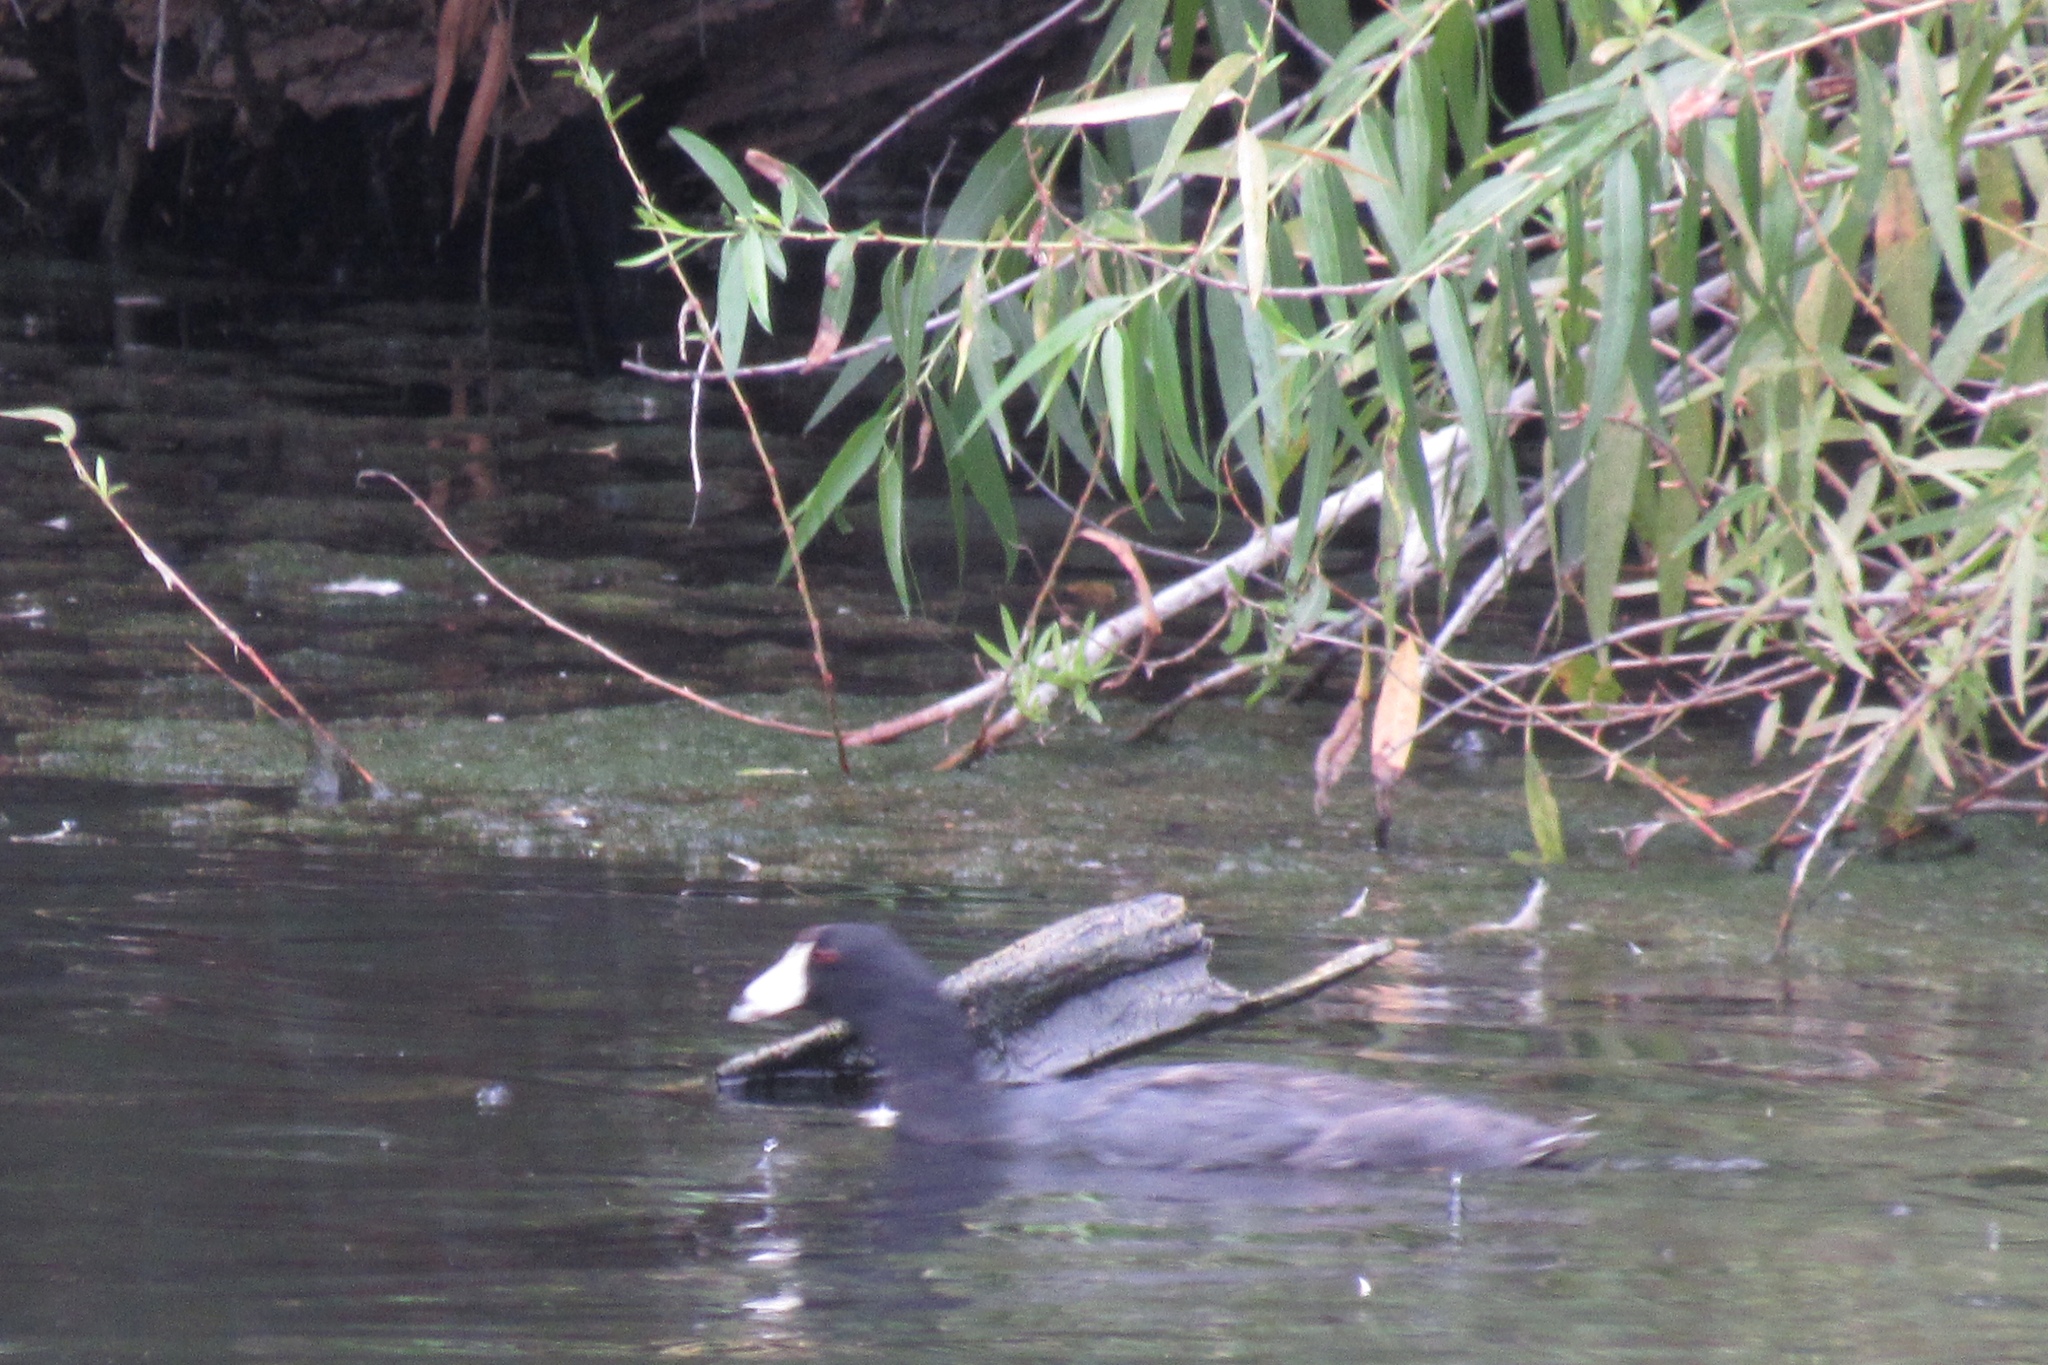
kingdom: Animalia
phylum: Chordata
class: Aves
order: Gruiformes
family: Rallidae
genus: Fulica
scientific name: Fulica americana
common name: American coot
